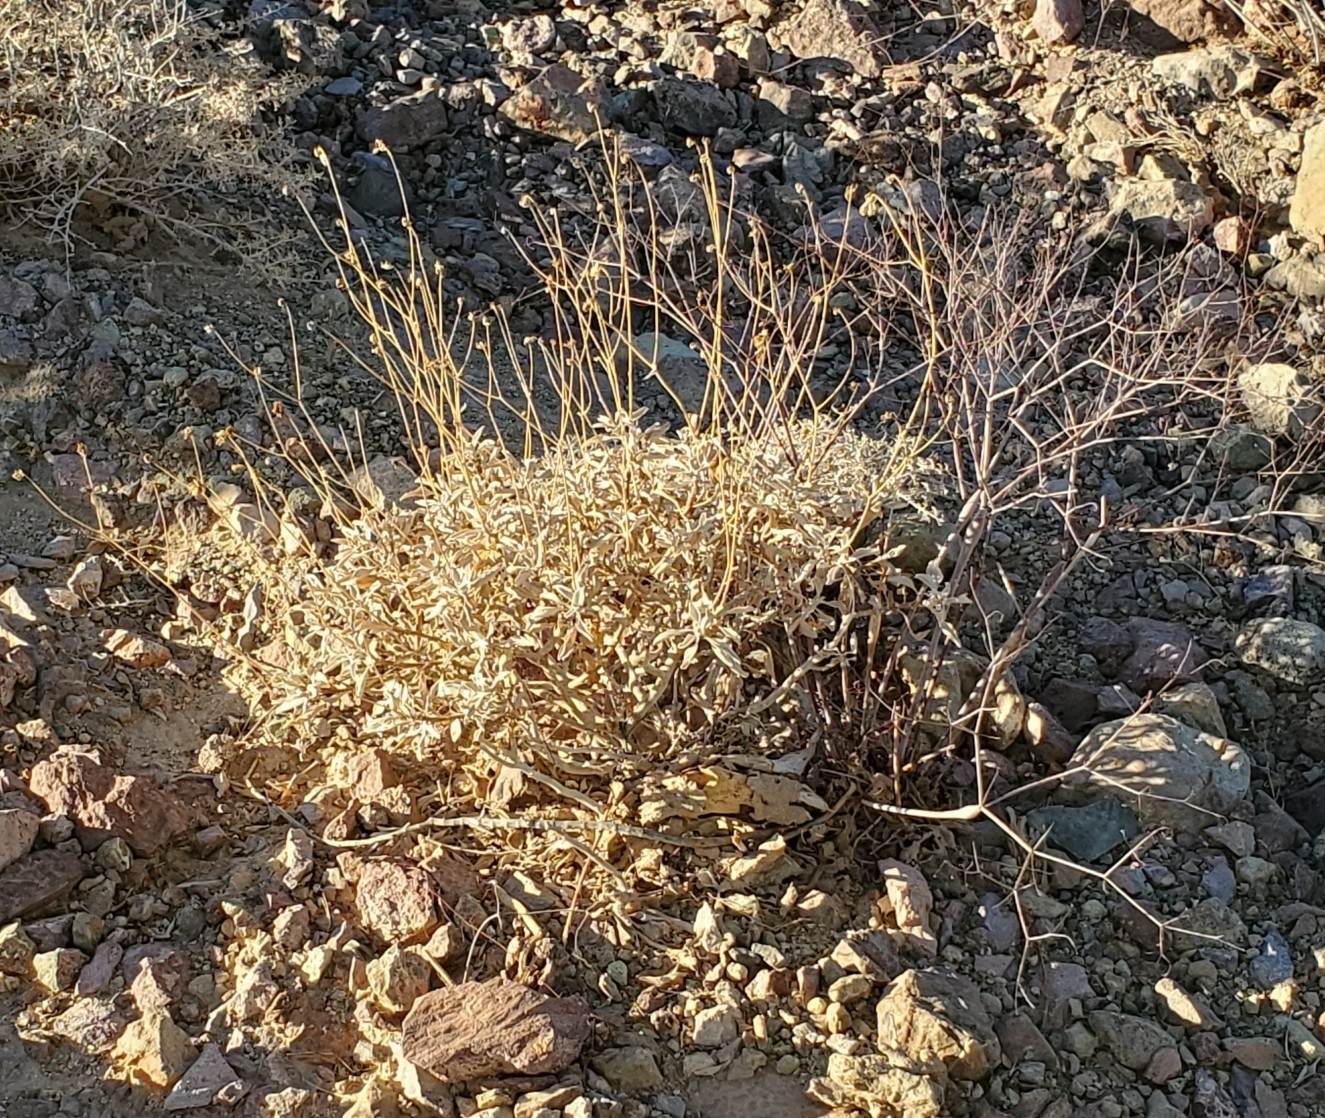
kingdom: Plantae
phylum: Tracheophyta
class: Magnoliopsida
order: Asterales
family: Asteraceae
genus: Encelia
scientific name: Encelia farinosa
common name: Brittlebush
